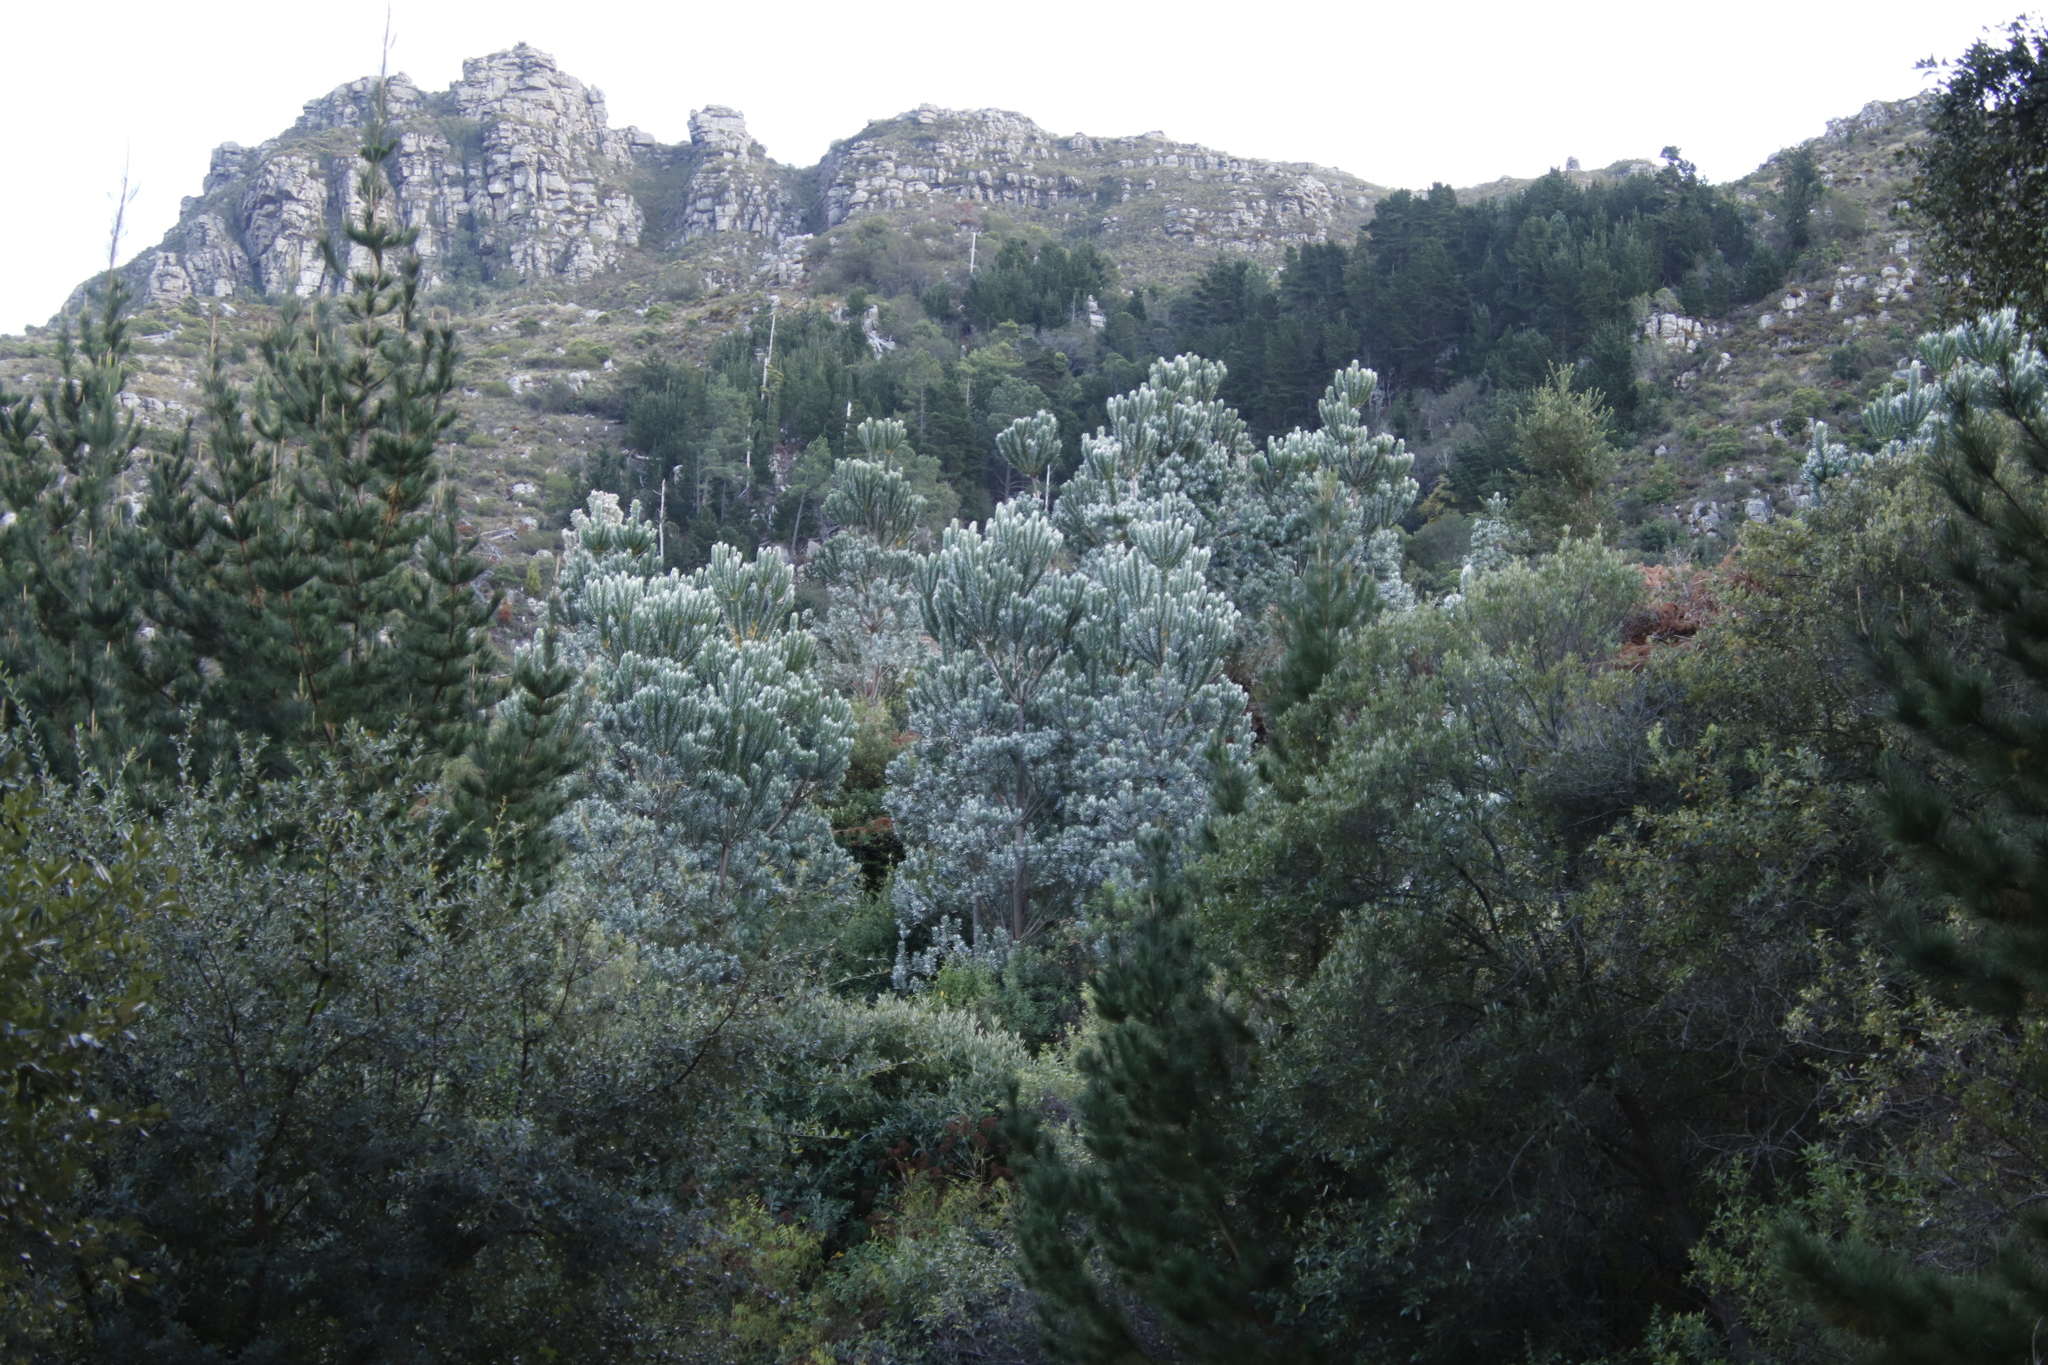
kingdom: Plantae
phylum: Tracheophyta
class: Magnoliopsida
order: Proteales
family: Proteaceae
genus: Leucadendron
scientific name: Leucadendron argenteum
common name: Cape silver tree
